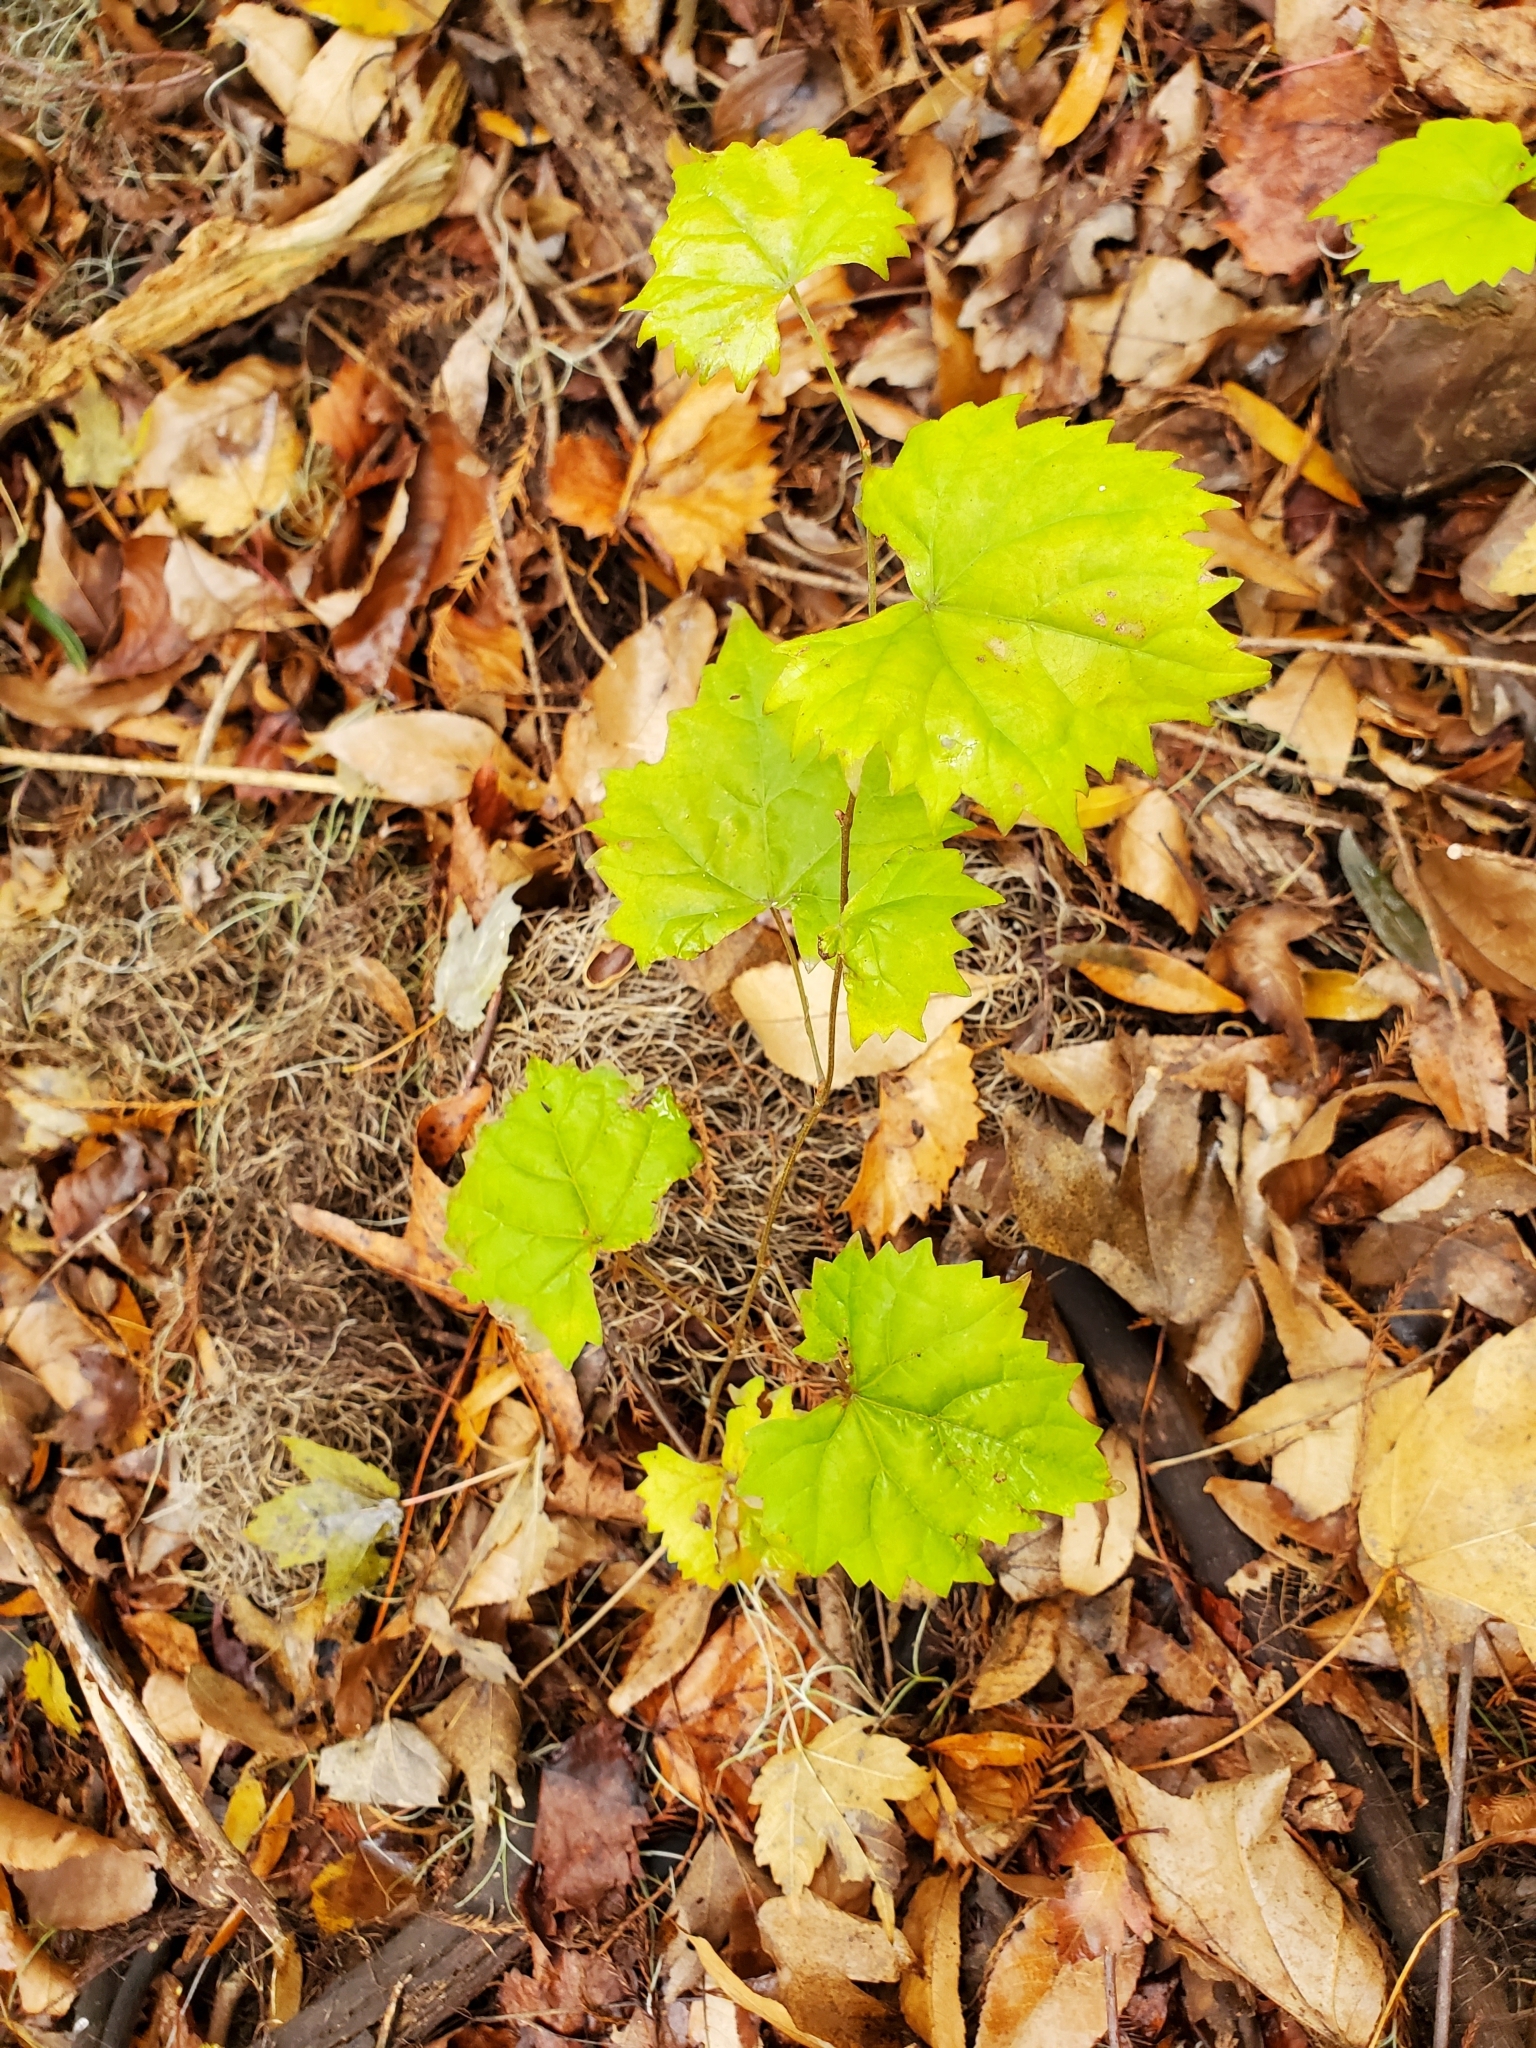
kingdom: Plantae
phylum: Tracheophyta
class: Magnoliopsida
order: Vitales
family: Vitaceae
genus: Vitis
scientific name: Vitis rotundifolia
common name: Muscadine grape
